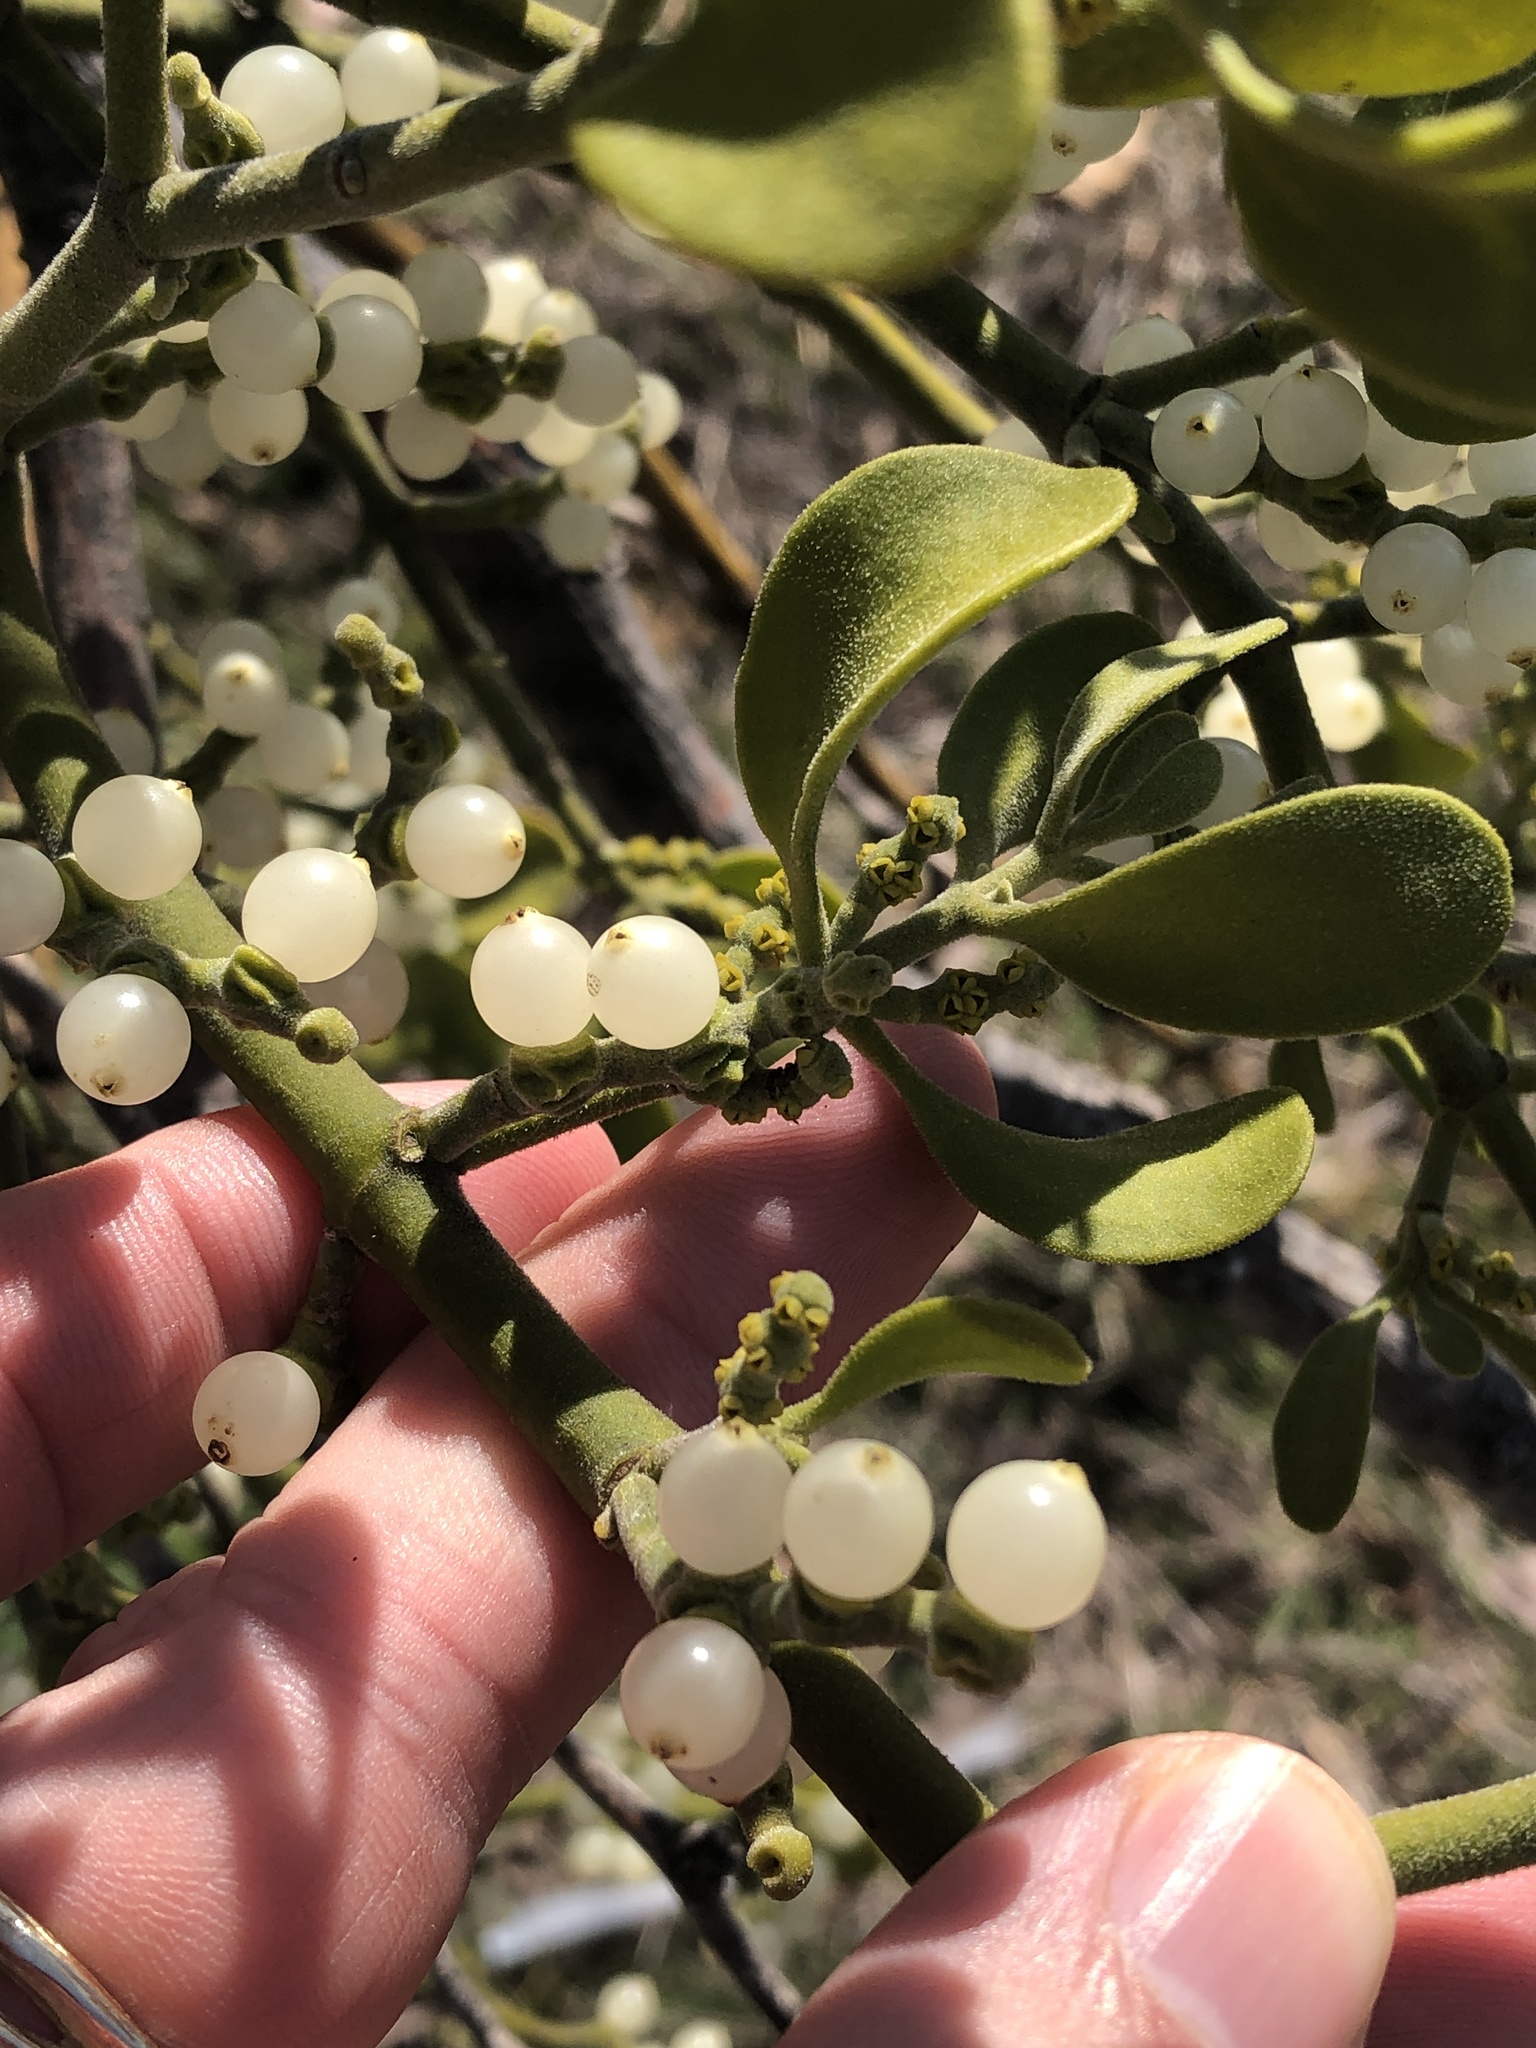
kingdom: Plantae
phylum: Tracheophyta
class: Magnoliopsida
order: Santalales
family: Viscaceae
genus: Phoradendron
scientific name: Phoradendron leucarpum
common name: Pacific mistletoe
